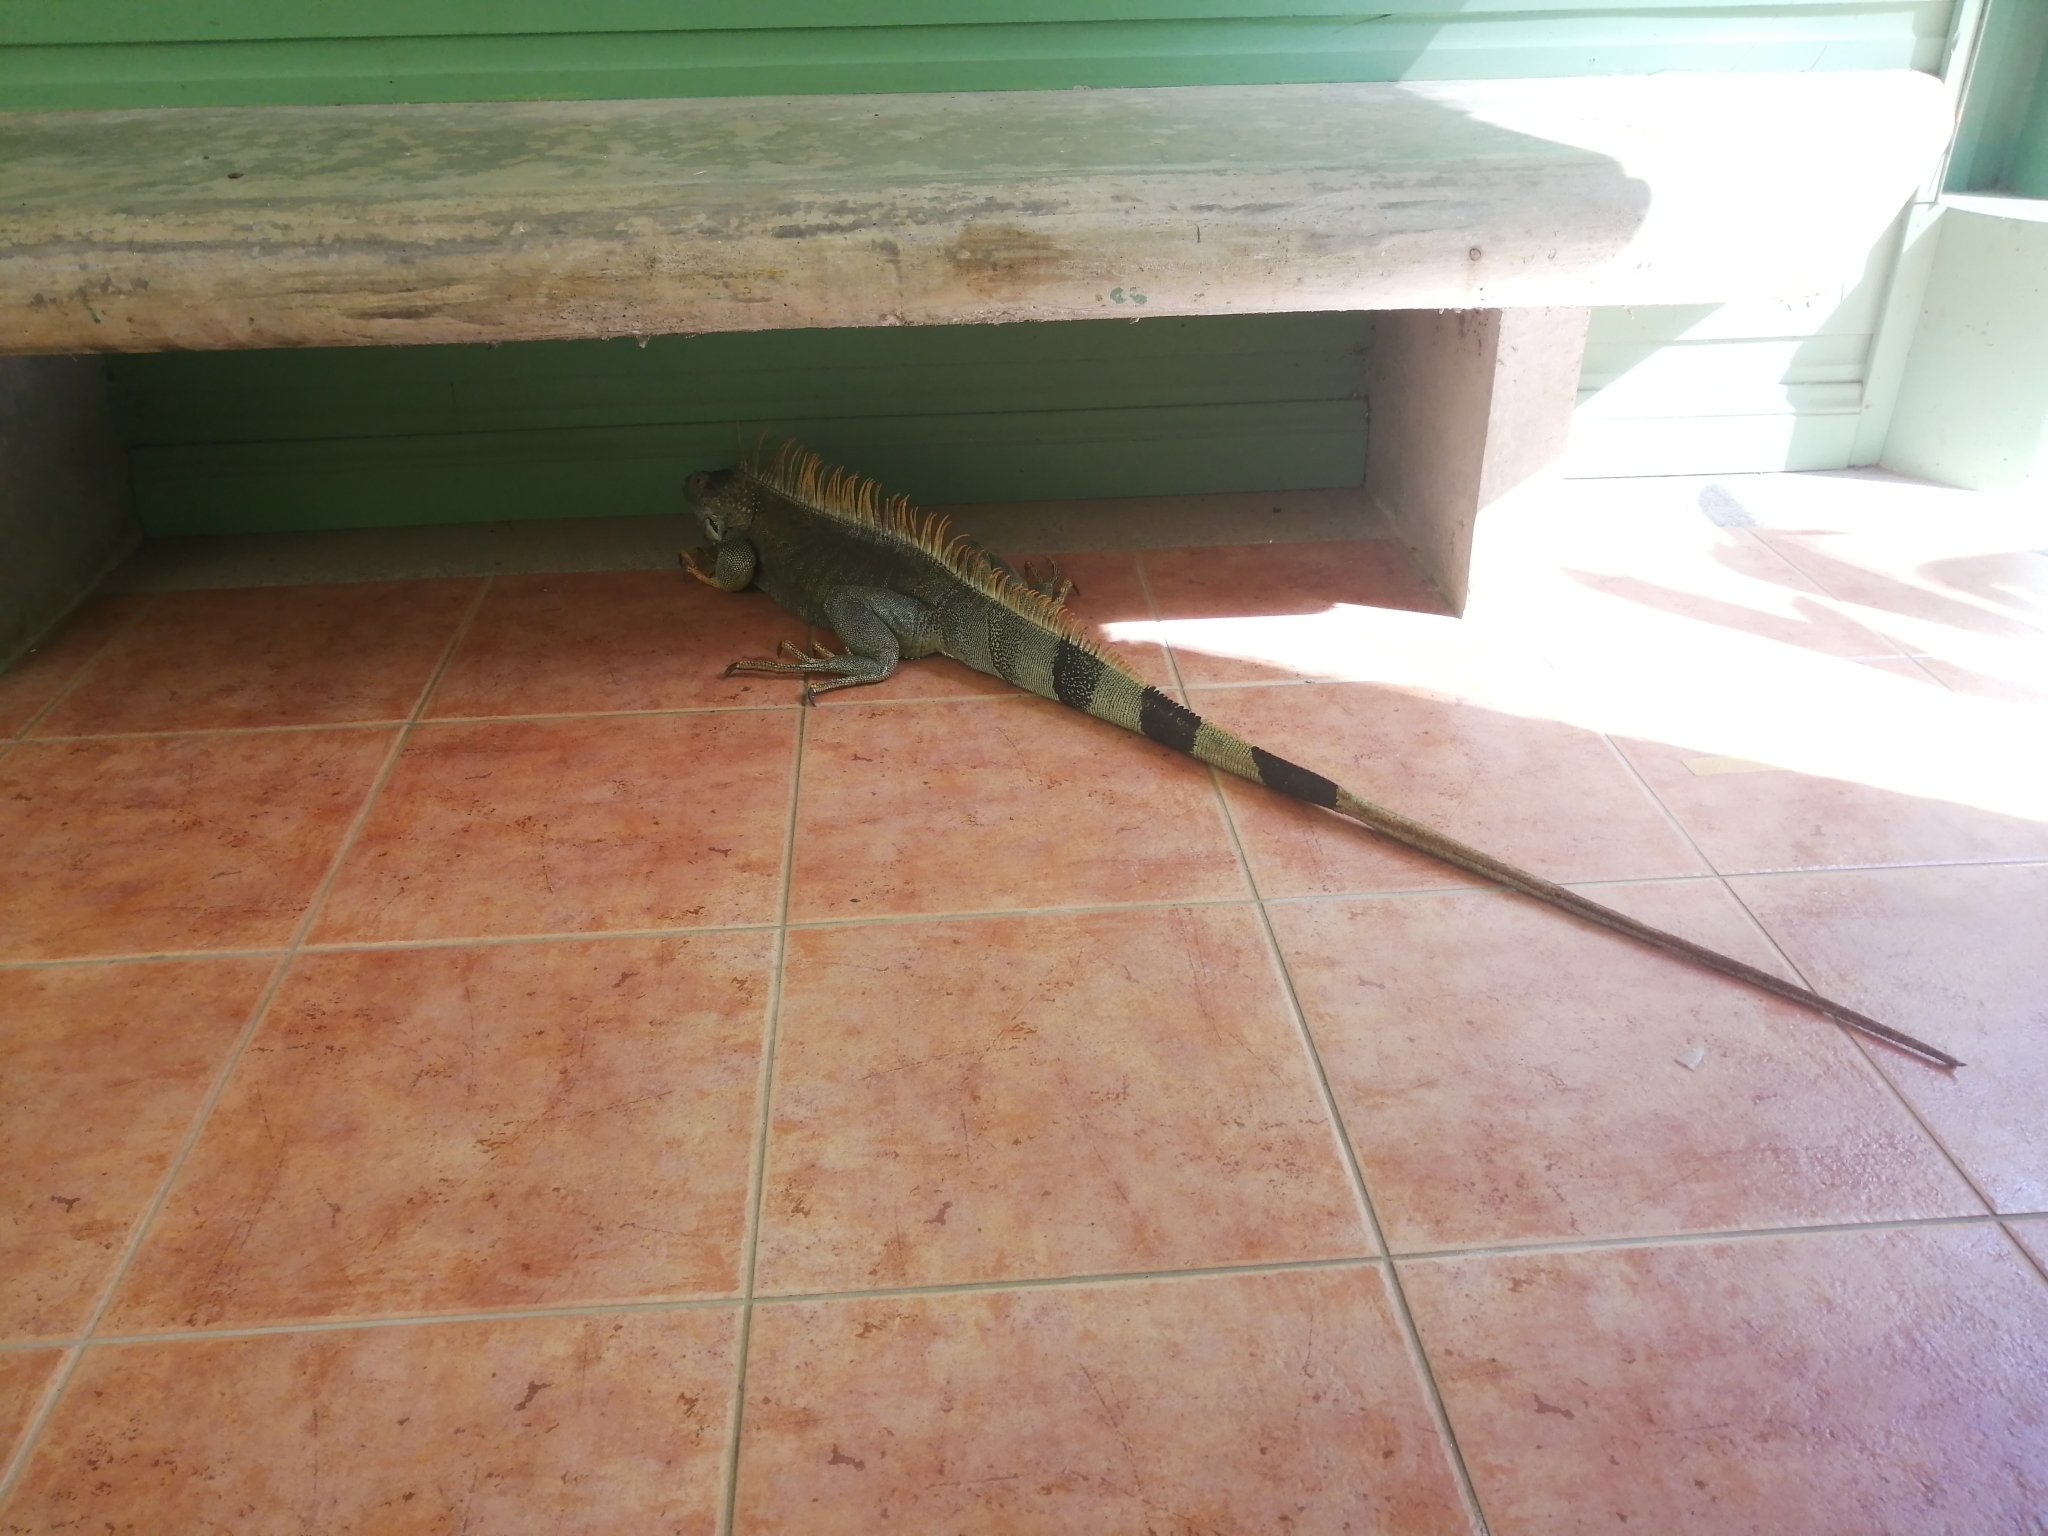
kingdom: Animalia
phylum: Chordata
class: Squamata
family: Iguanidae
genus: Iguana
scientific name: Iguana iguana
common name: Green iguana
